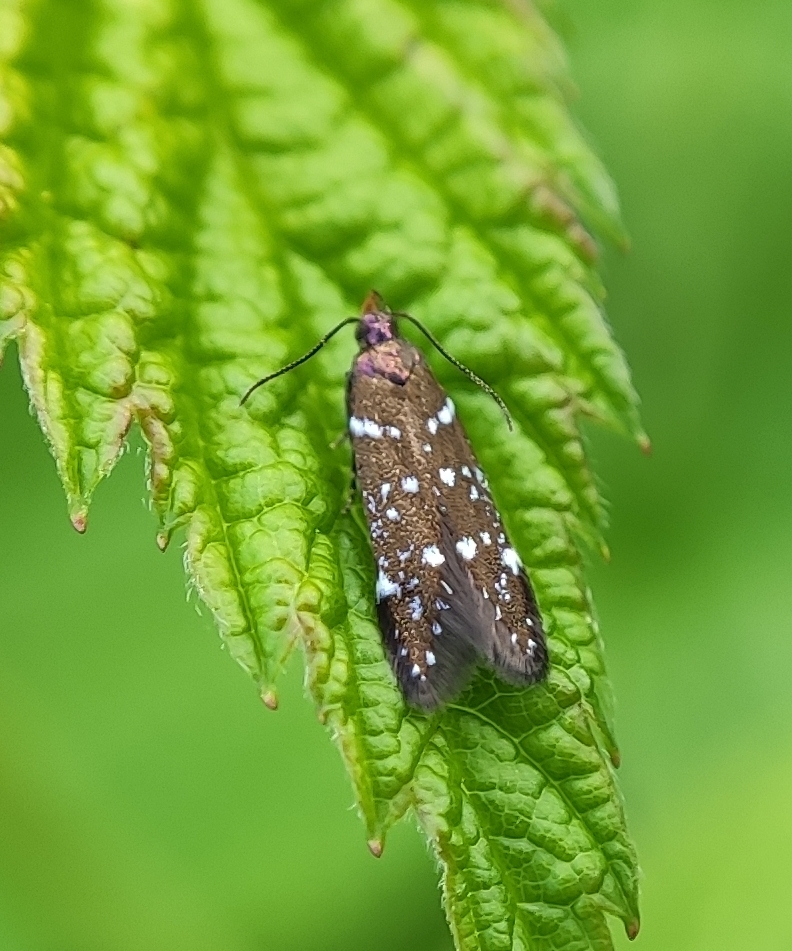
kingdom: Animalia
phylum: Arthropoda
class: Insecta
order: Lepidoptera
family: Gelechiidae
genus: Argolamprotes
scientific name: Argolamprotes micella
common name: Bright neb
